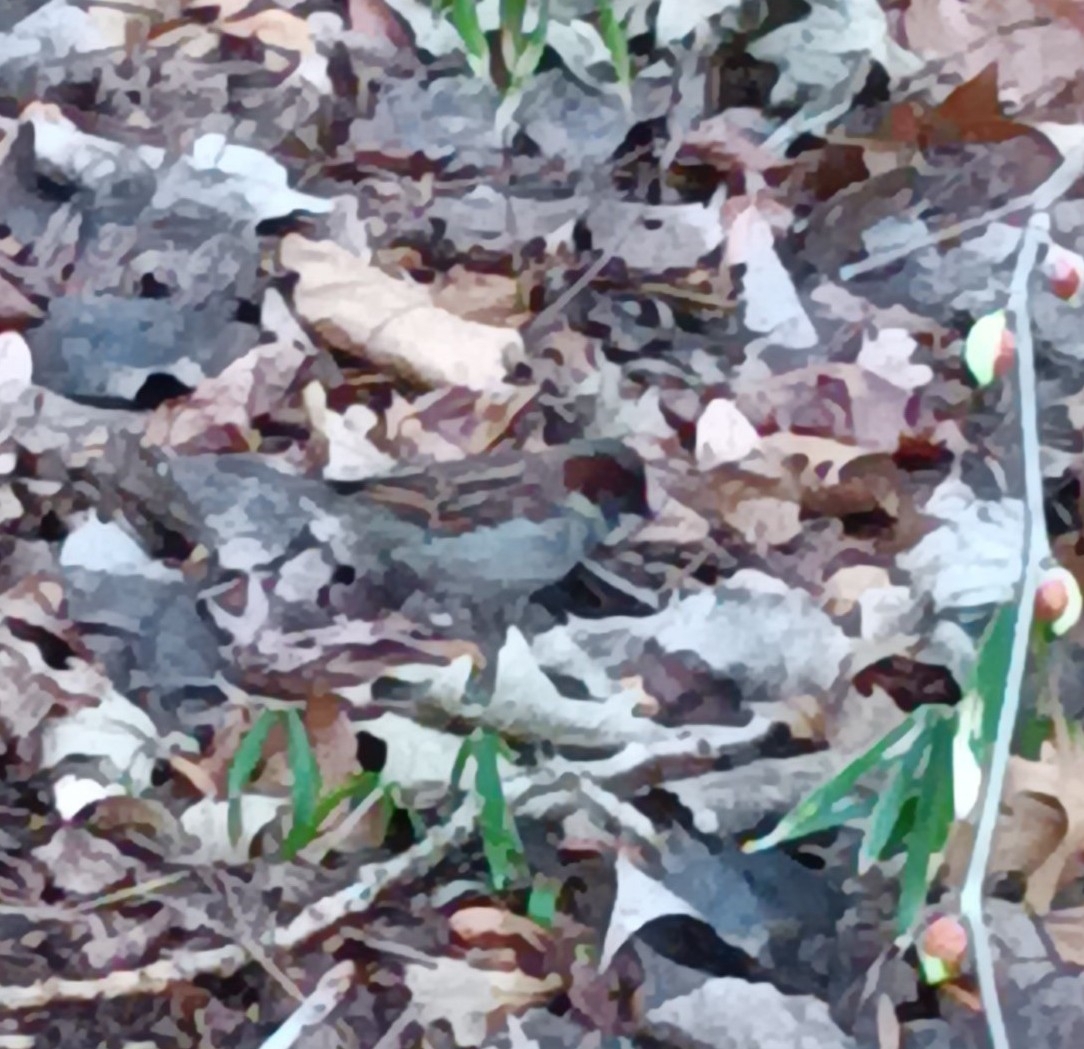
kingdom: Animalia
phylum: Chordata
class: Aves
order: Passeriformes
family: Passeridae
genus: Passer
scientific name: Passer domesticus
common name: House sparrow
